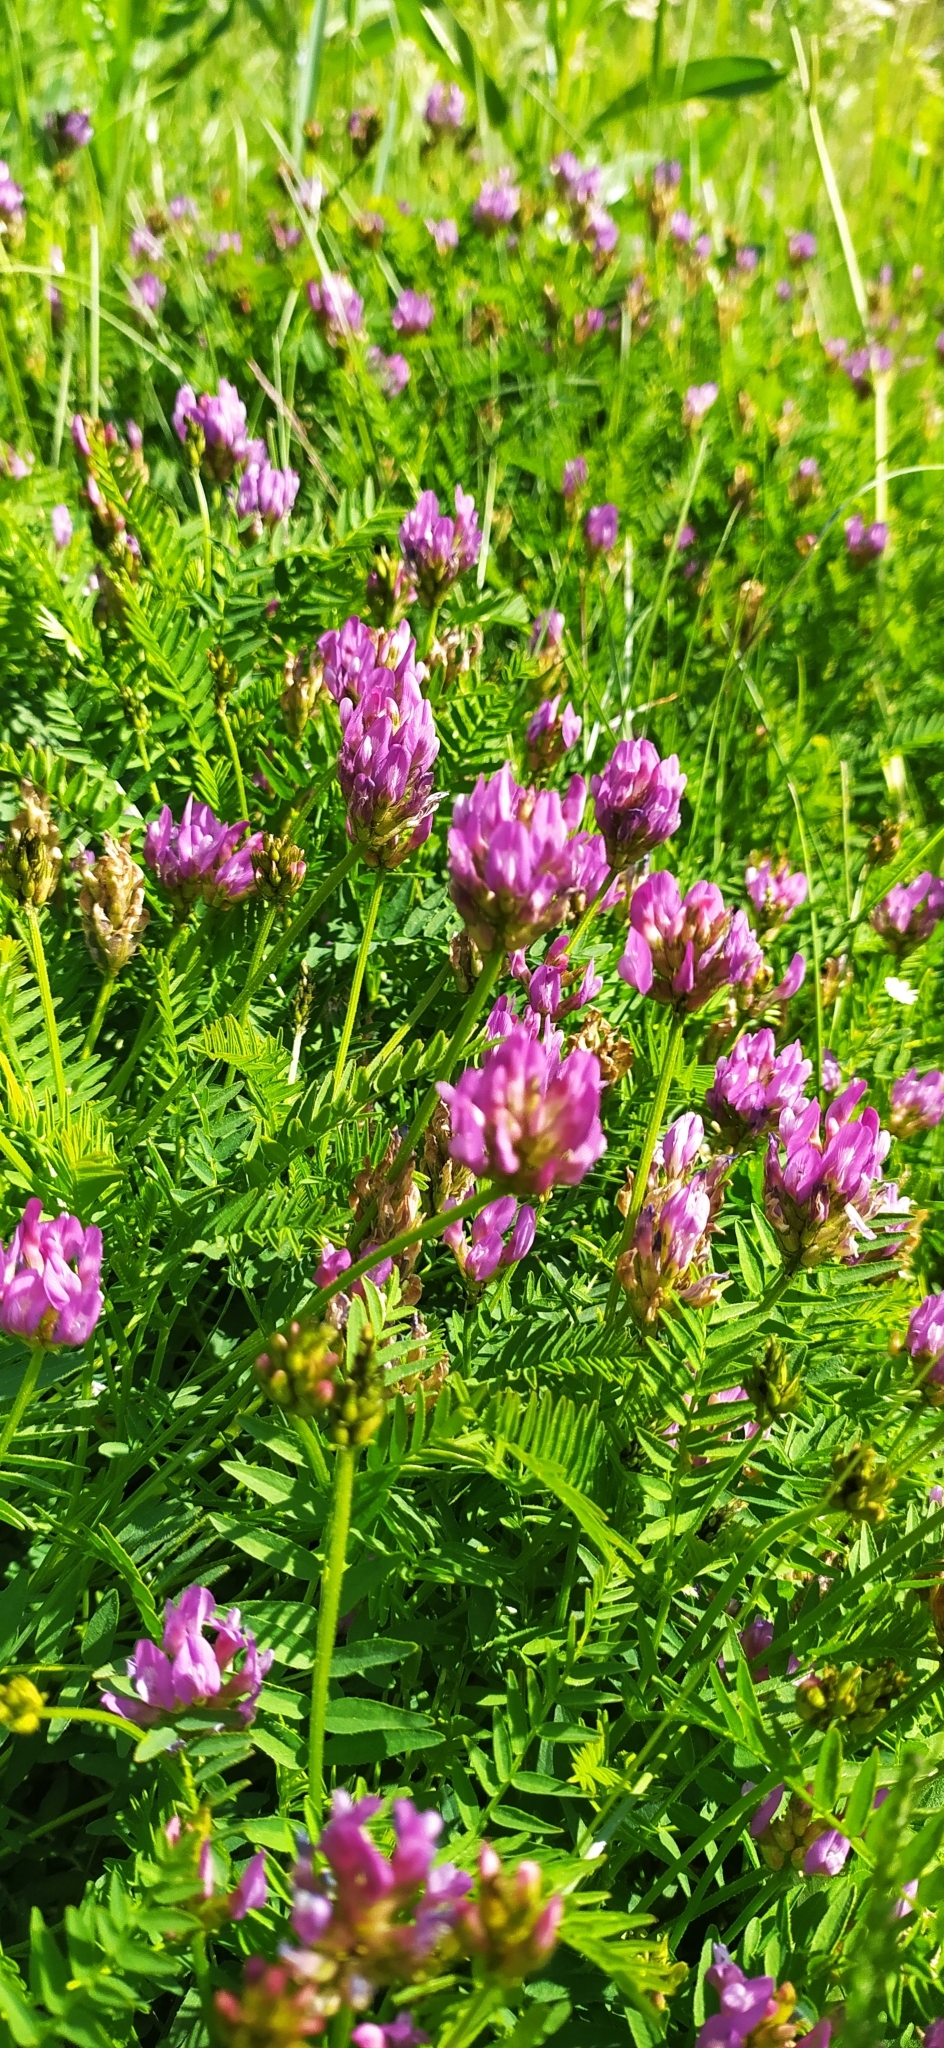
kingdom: Plantae
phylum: Tracheophyta
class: Magnoliopsida
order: Fabales
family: Fabaceae
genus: Astragalus
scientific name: Astragalus danicus
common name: Purple milk-vetch
